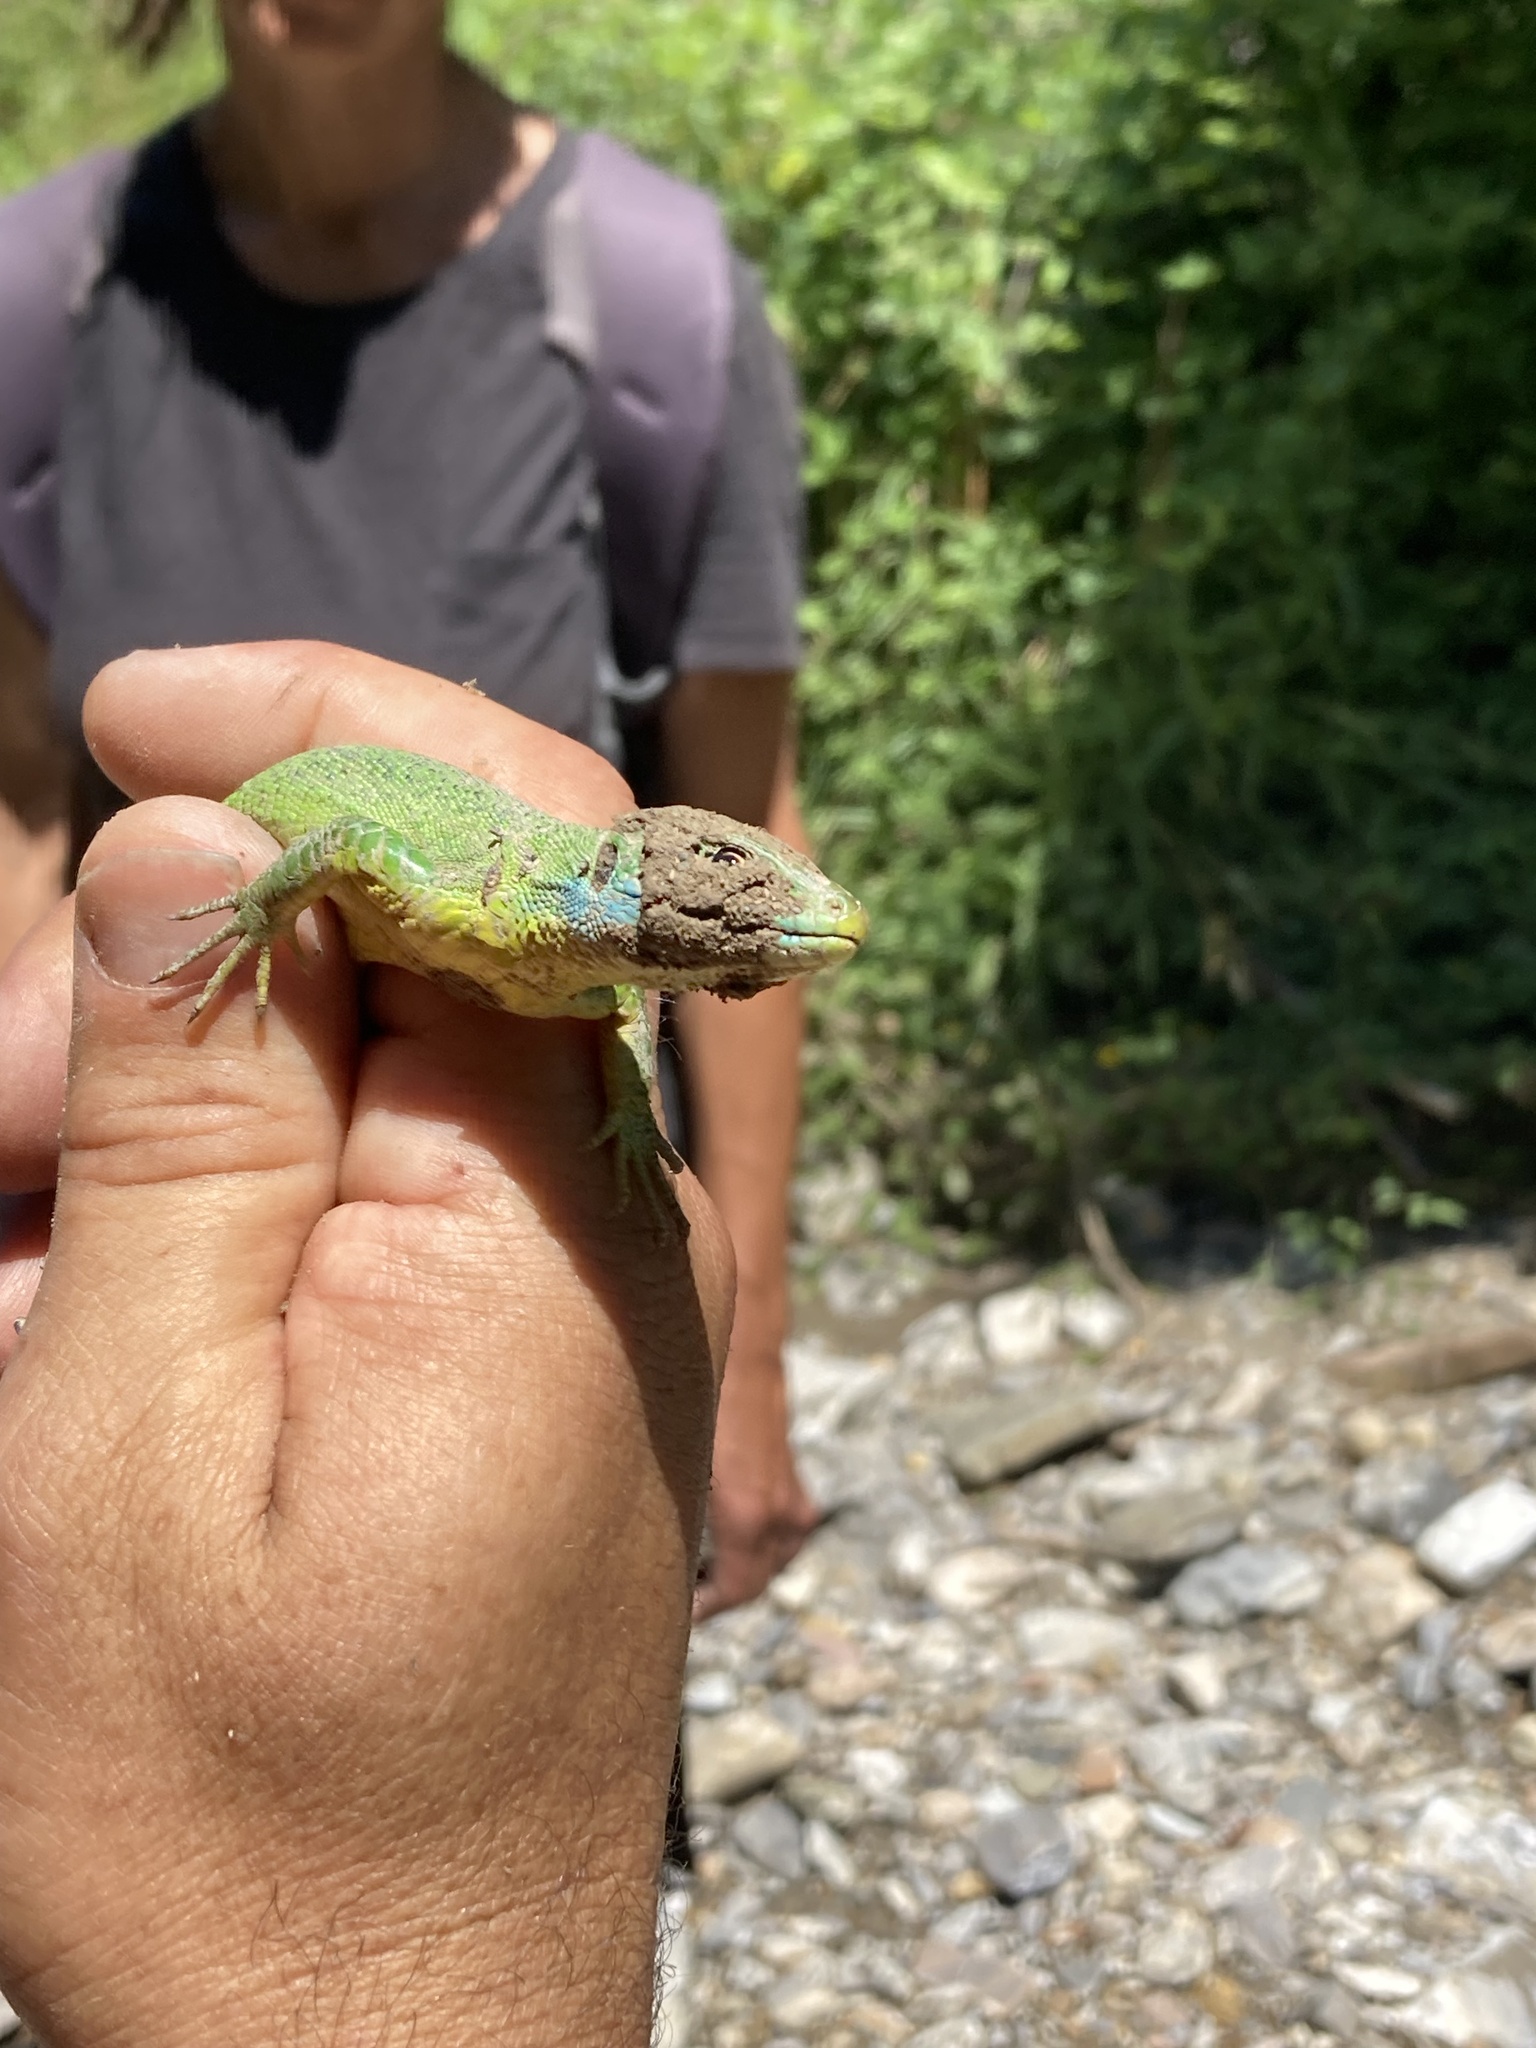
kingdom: Animalia
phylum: Chordata
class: Squamata
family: Lacertidae
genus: Lacerta
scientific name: Lacerta bilineata
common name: Western green lizard
